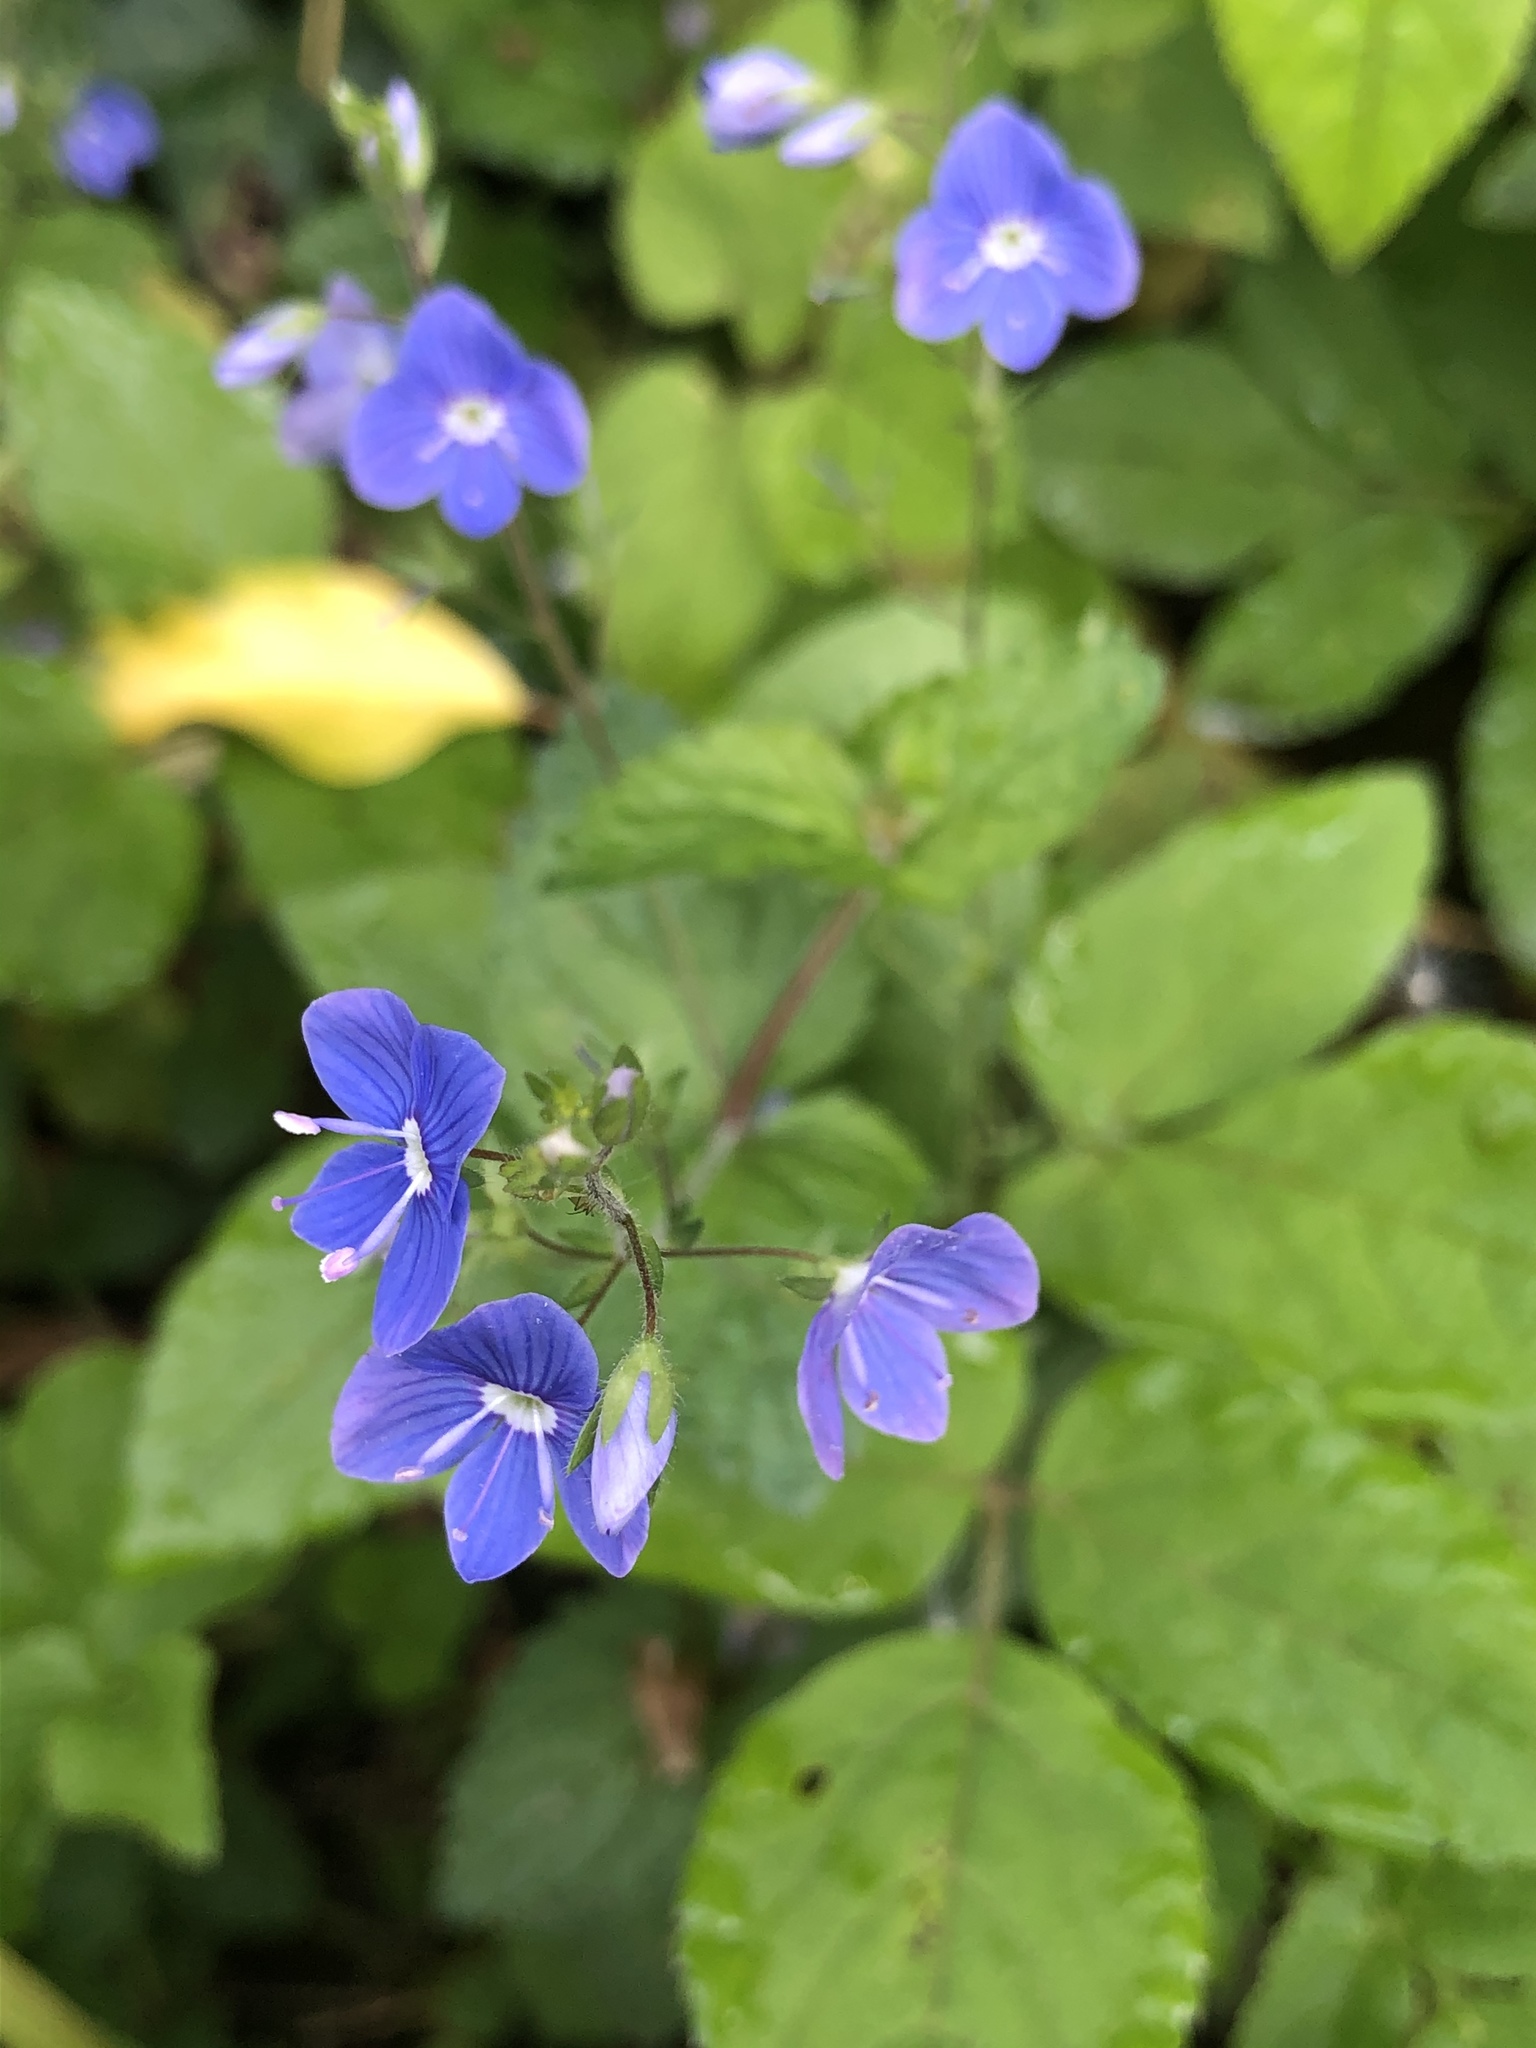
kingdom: Plantae
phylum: Tracheophyta
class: Magnoliopsida
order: Lamiales
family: Plantaginaceae
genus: Veronica
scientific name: Veronica chamaedrys
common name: Germander speedwell
